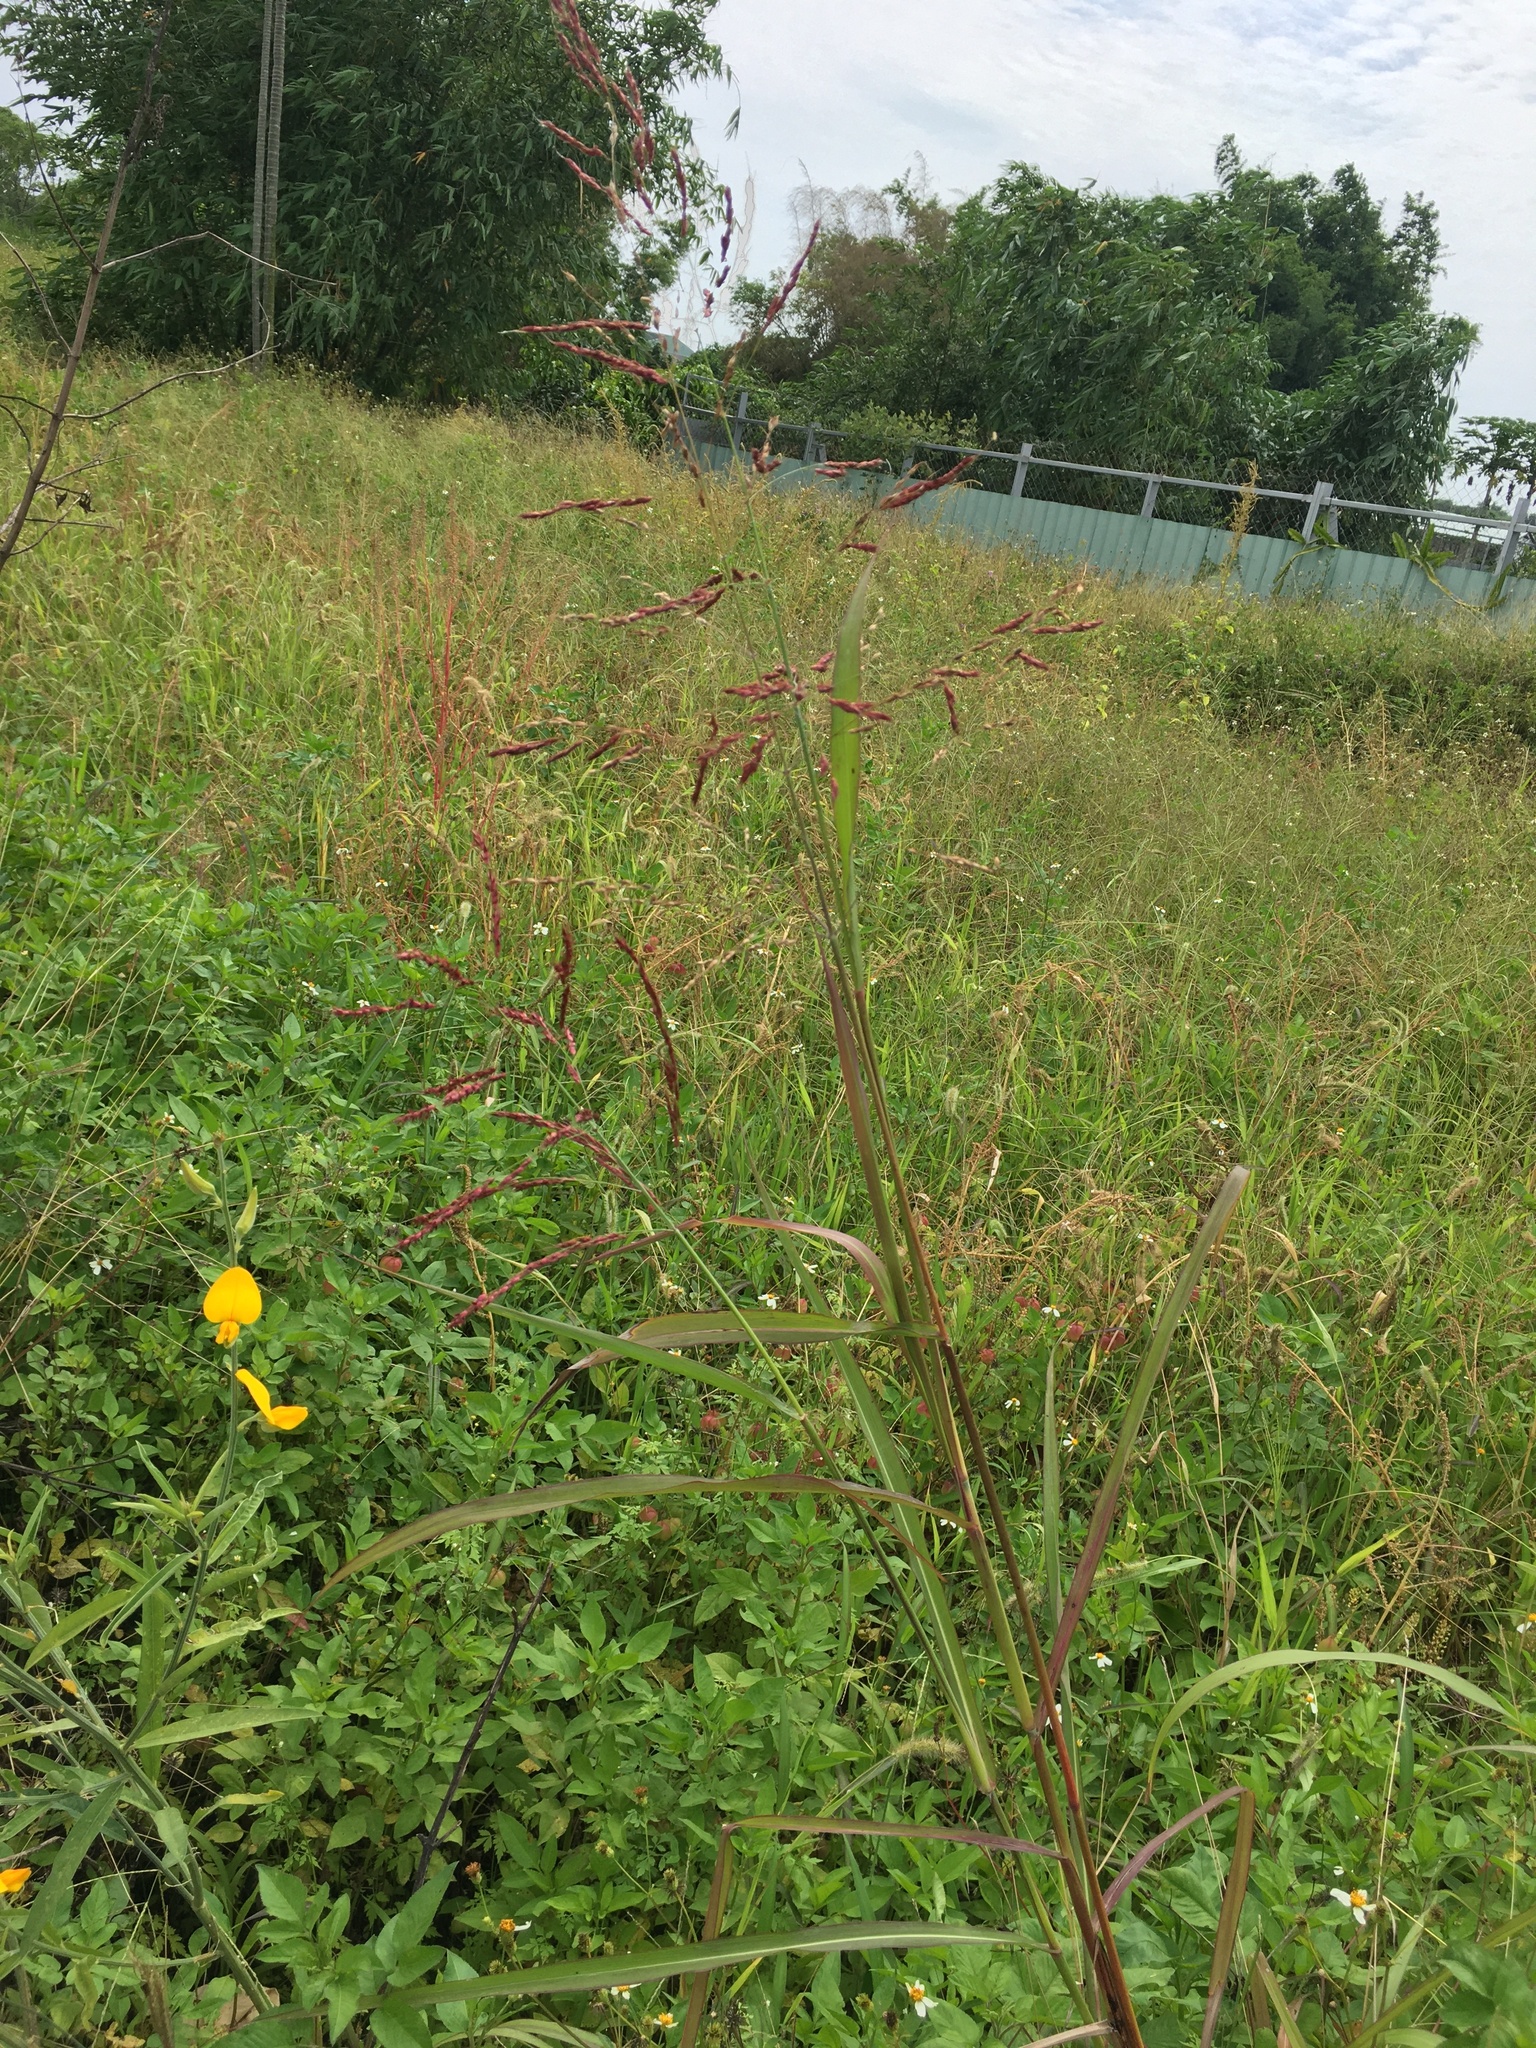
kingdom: Plantae
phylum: Tracheophyta
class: Liliopsida
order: Poales
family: Poaceae
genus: Sorghum
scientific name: Sorghum halepense
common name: Johnson-grass
